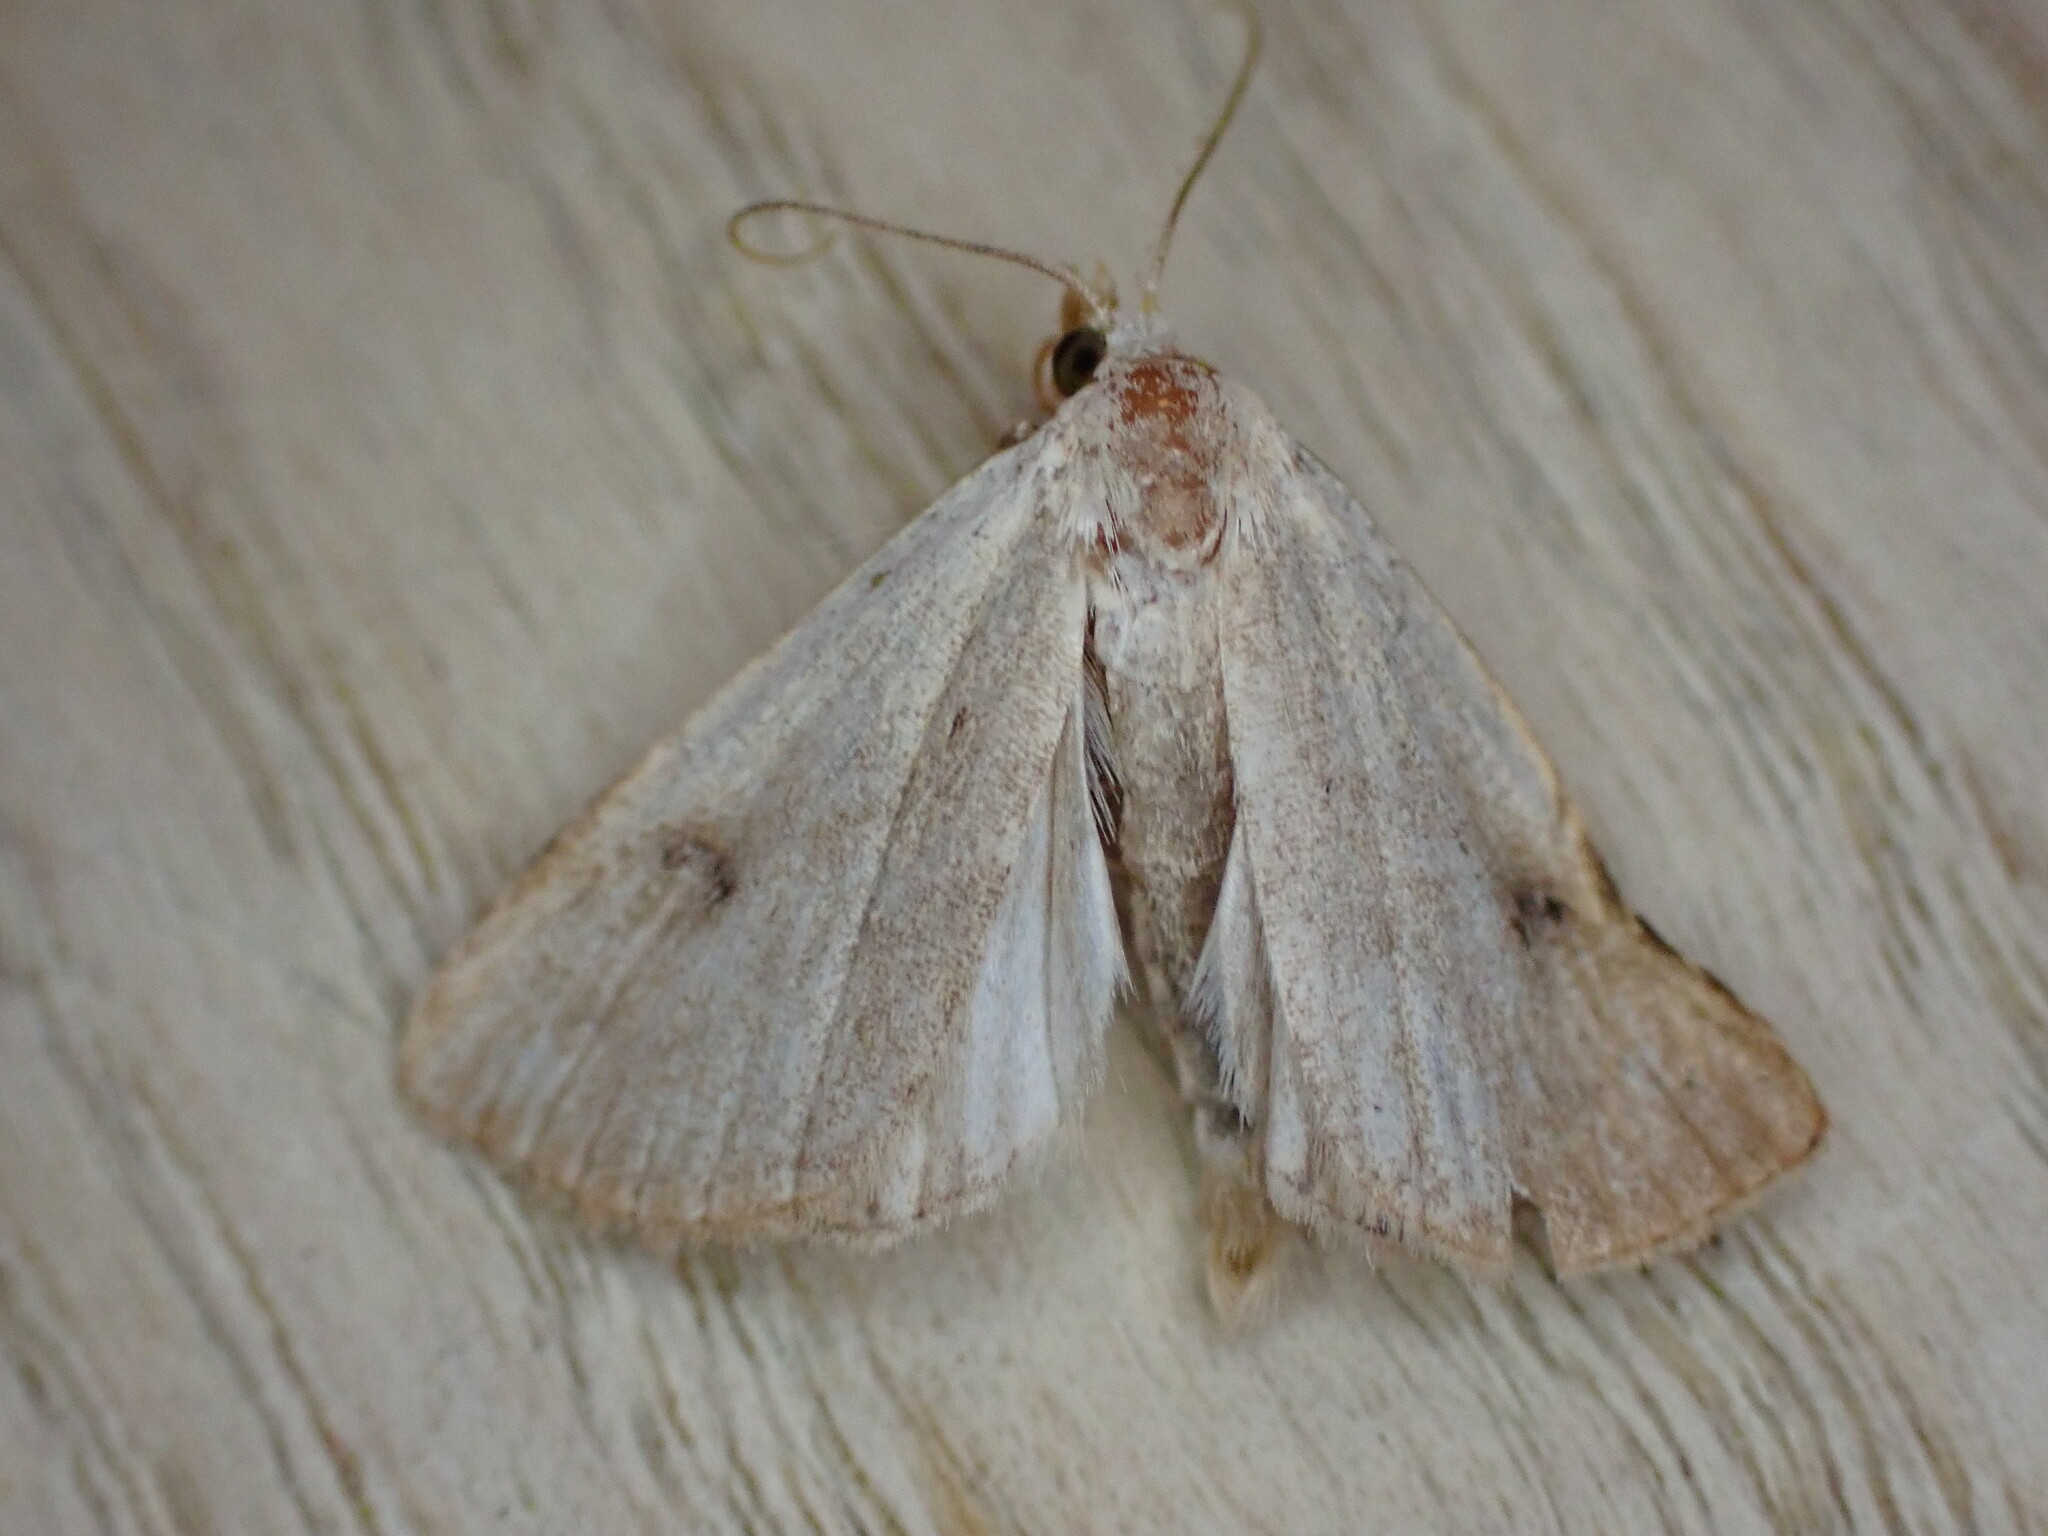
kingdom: Animalia
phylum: Arthropoda
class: Insecta
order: Lepidoptera
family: Erebidae
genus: Rivula
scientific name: Rivula sericealis
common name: Straw dot
